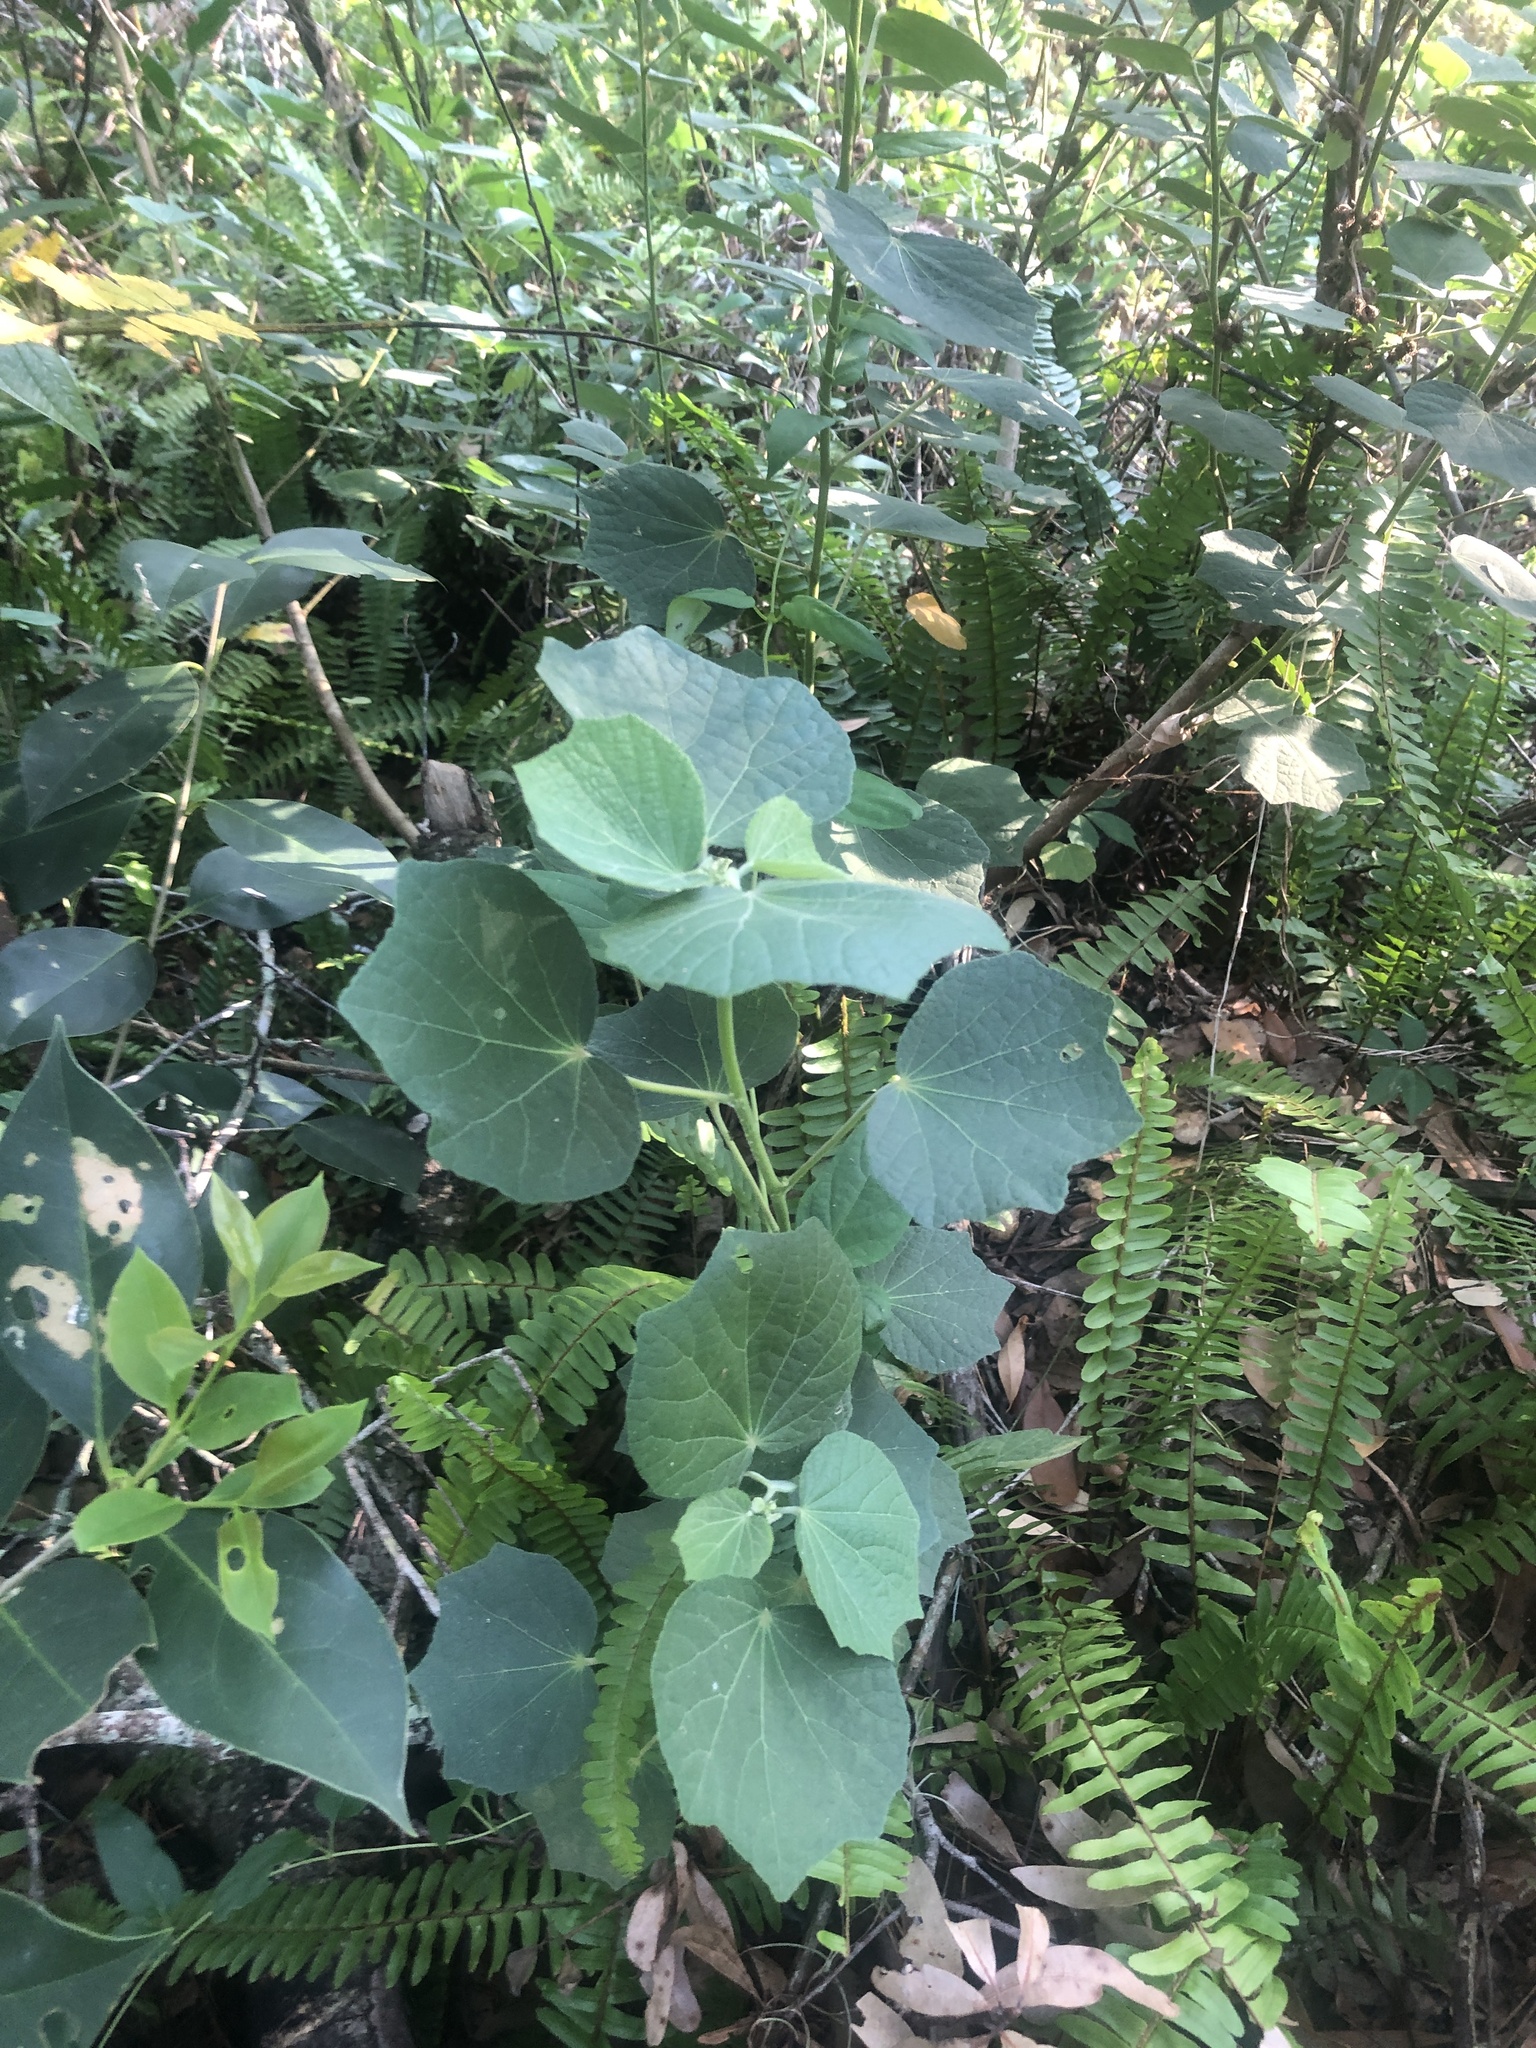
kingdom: Plantae
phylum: Tracheophyta
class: Magnoliopsida
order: Malvales
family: Malvaceae
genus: Urena
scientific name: Urena lobata
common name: Caesarweed
